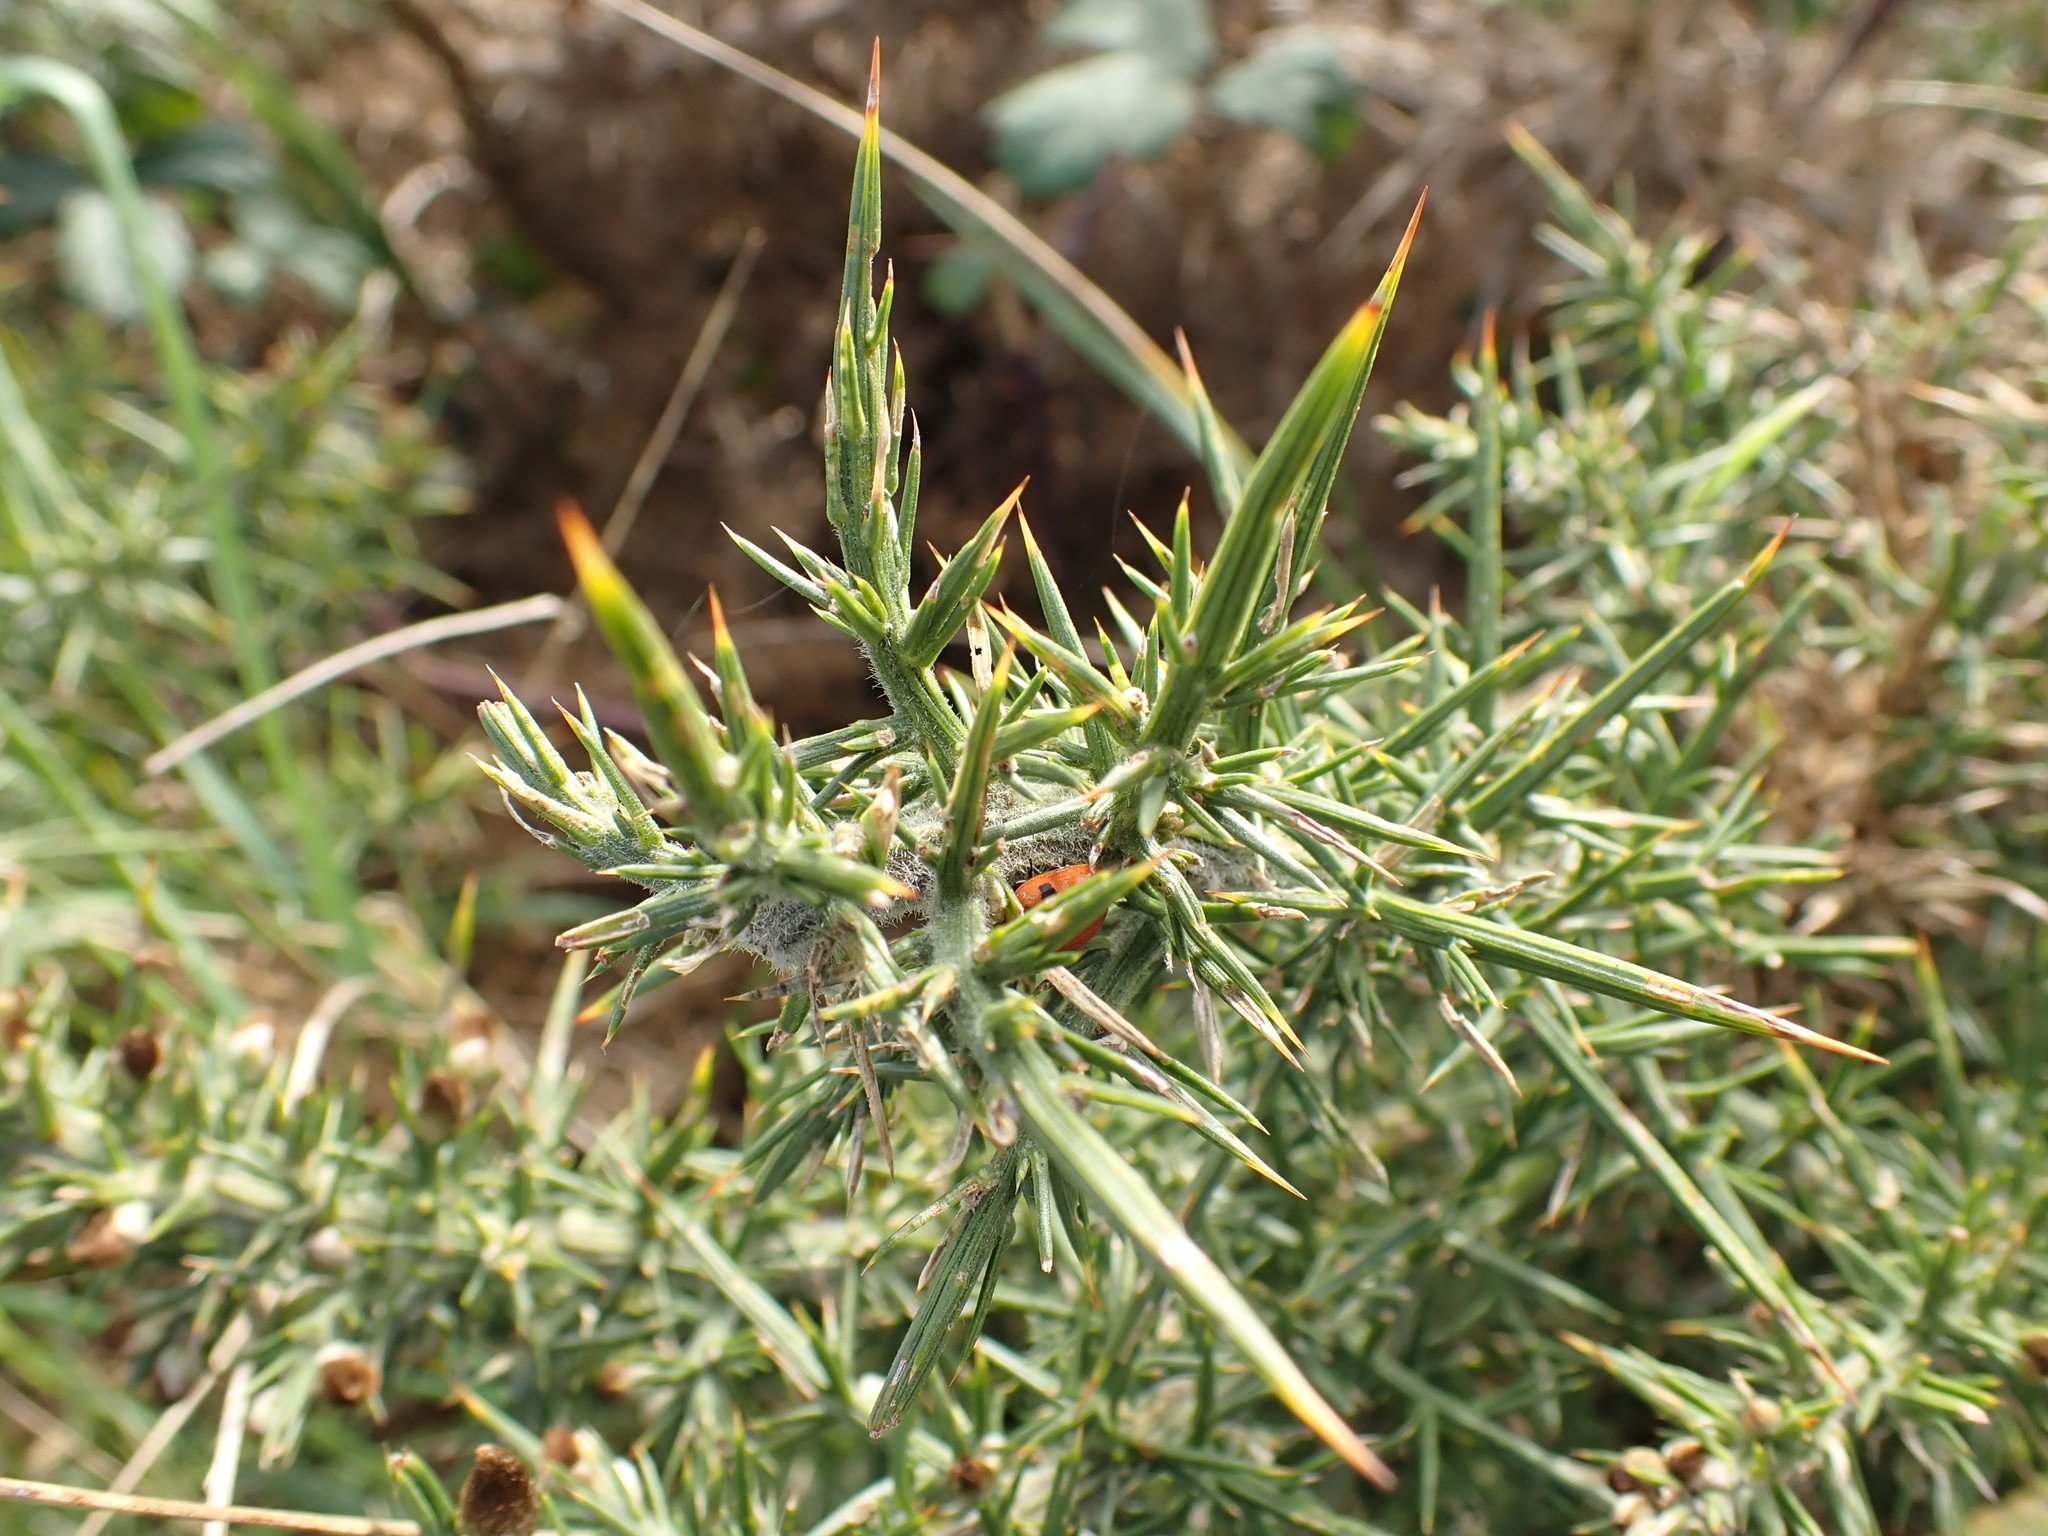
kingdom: Plantae
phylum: Tracheophyta
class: Magnoliopsida
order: Fabales
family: Fabaceae
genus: Ulex
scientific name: Ulex europaeus
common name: Common gorse
